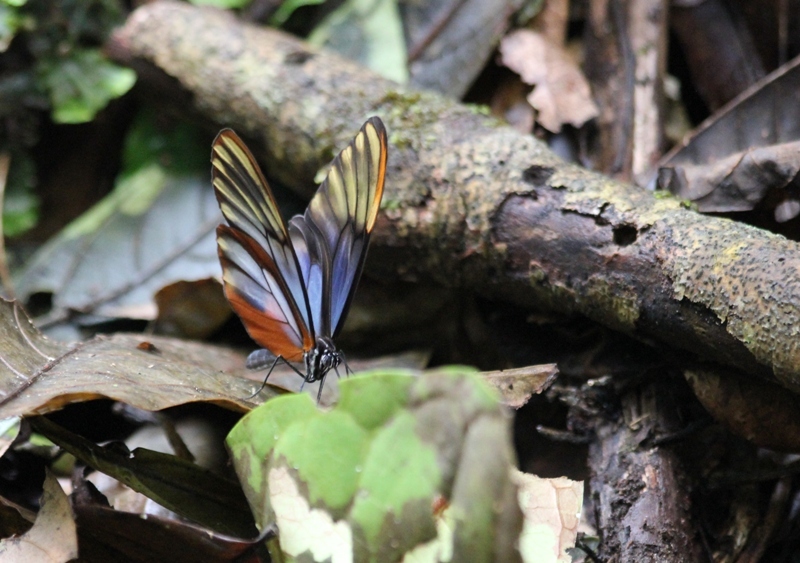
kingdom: Animalia
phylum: Arthropoda
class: Insecta
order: Lepidoptera
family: Nymphalidae
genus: Godyris
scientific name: Godyris duillia
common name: Dazzling glasswing
